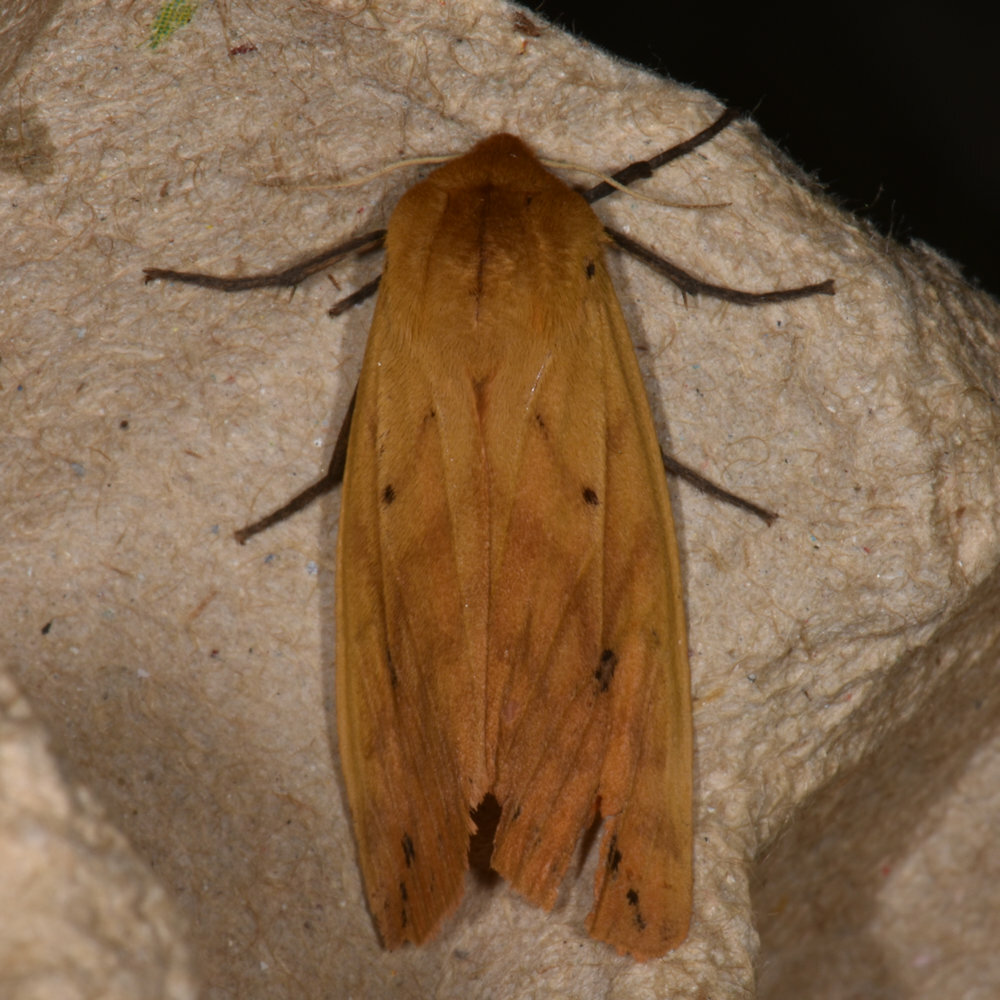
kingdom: Animalia
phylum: Arthropoda
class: Insecta
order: Lepidoptera
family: Erebidae
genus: Pyrrharctia
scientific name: Pyrrharctia isabella
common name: Isabella tiger moth
